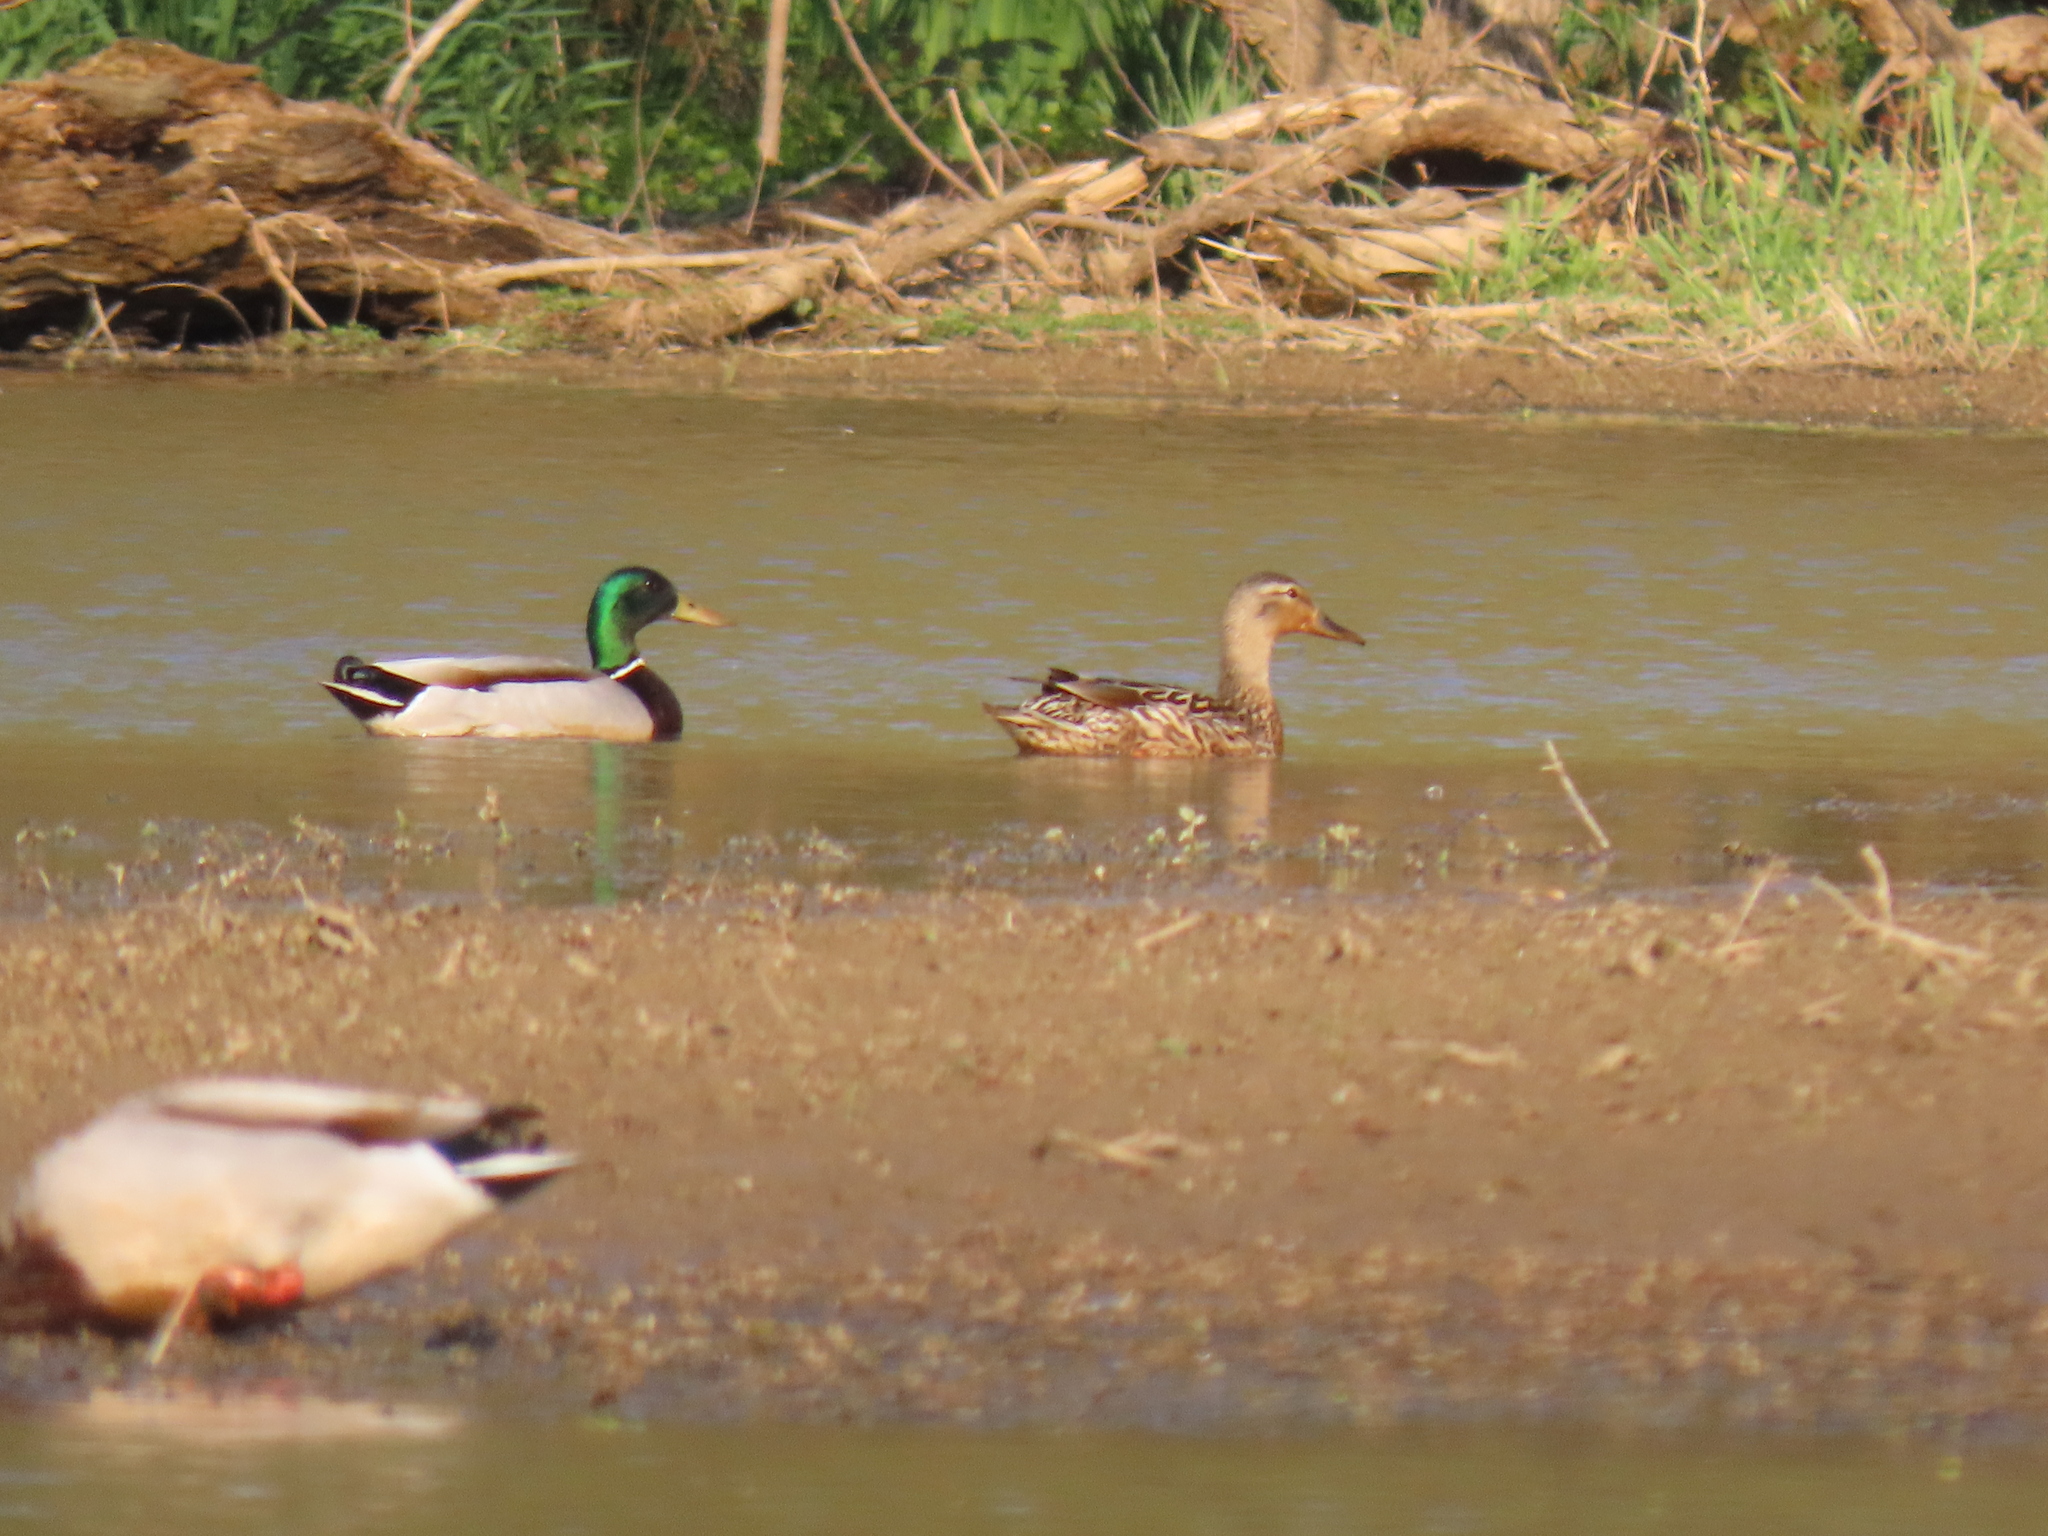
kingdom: Animalia
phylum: Chordata
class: Aves
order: Anseriformes
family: Anatidae
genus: Anas
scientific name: Anas platyrhynchos
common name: Mallard
